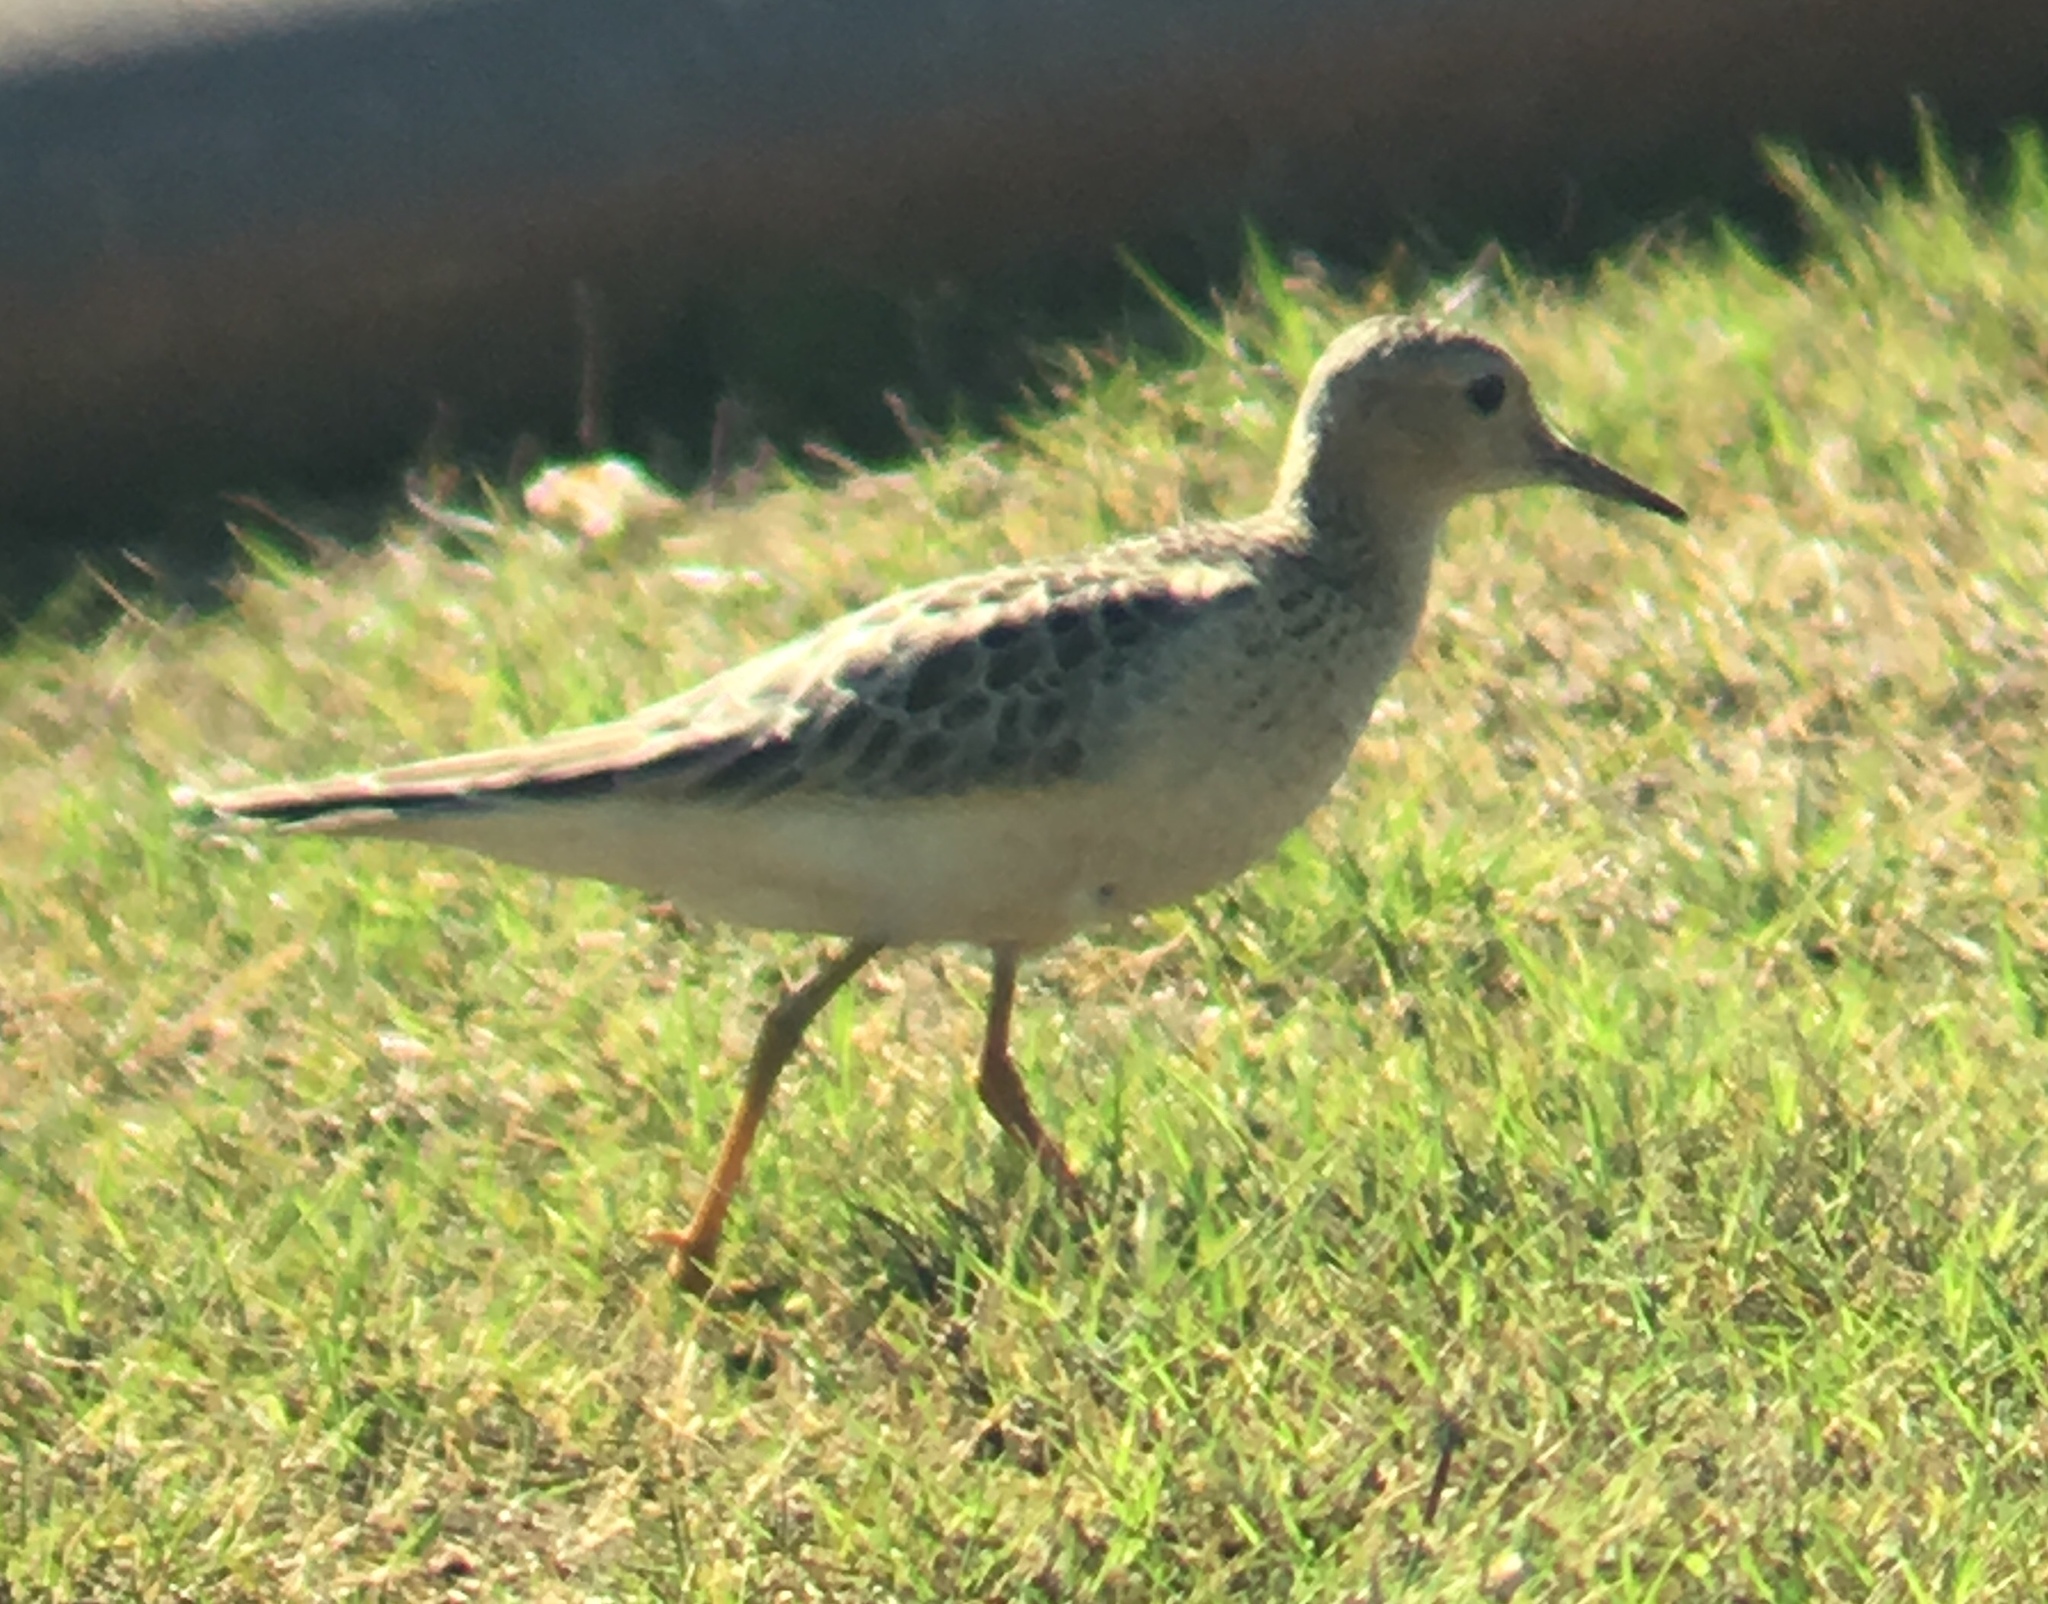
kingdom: Animalia
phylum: Chordata
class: Aves
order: Charadriiformes
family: Scolopacidae
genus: Calidris
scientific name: Calidris subruficollis
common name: Buff-breasted sandpiper
